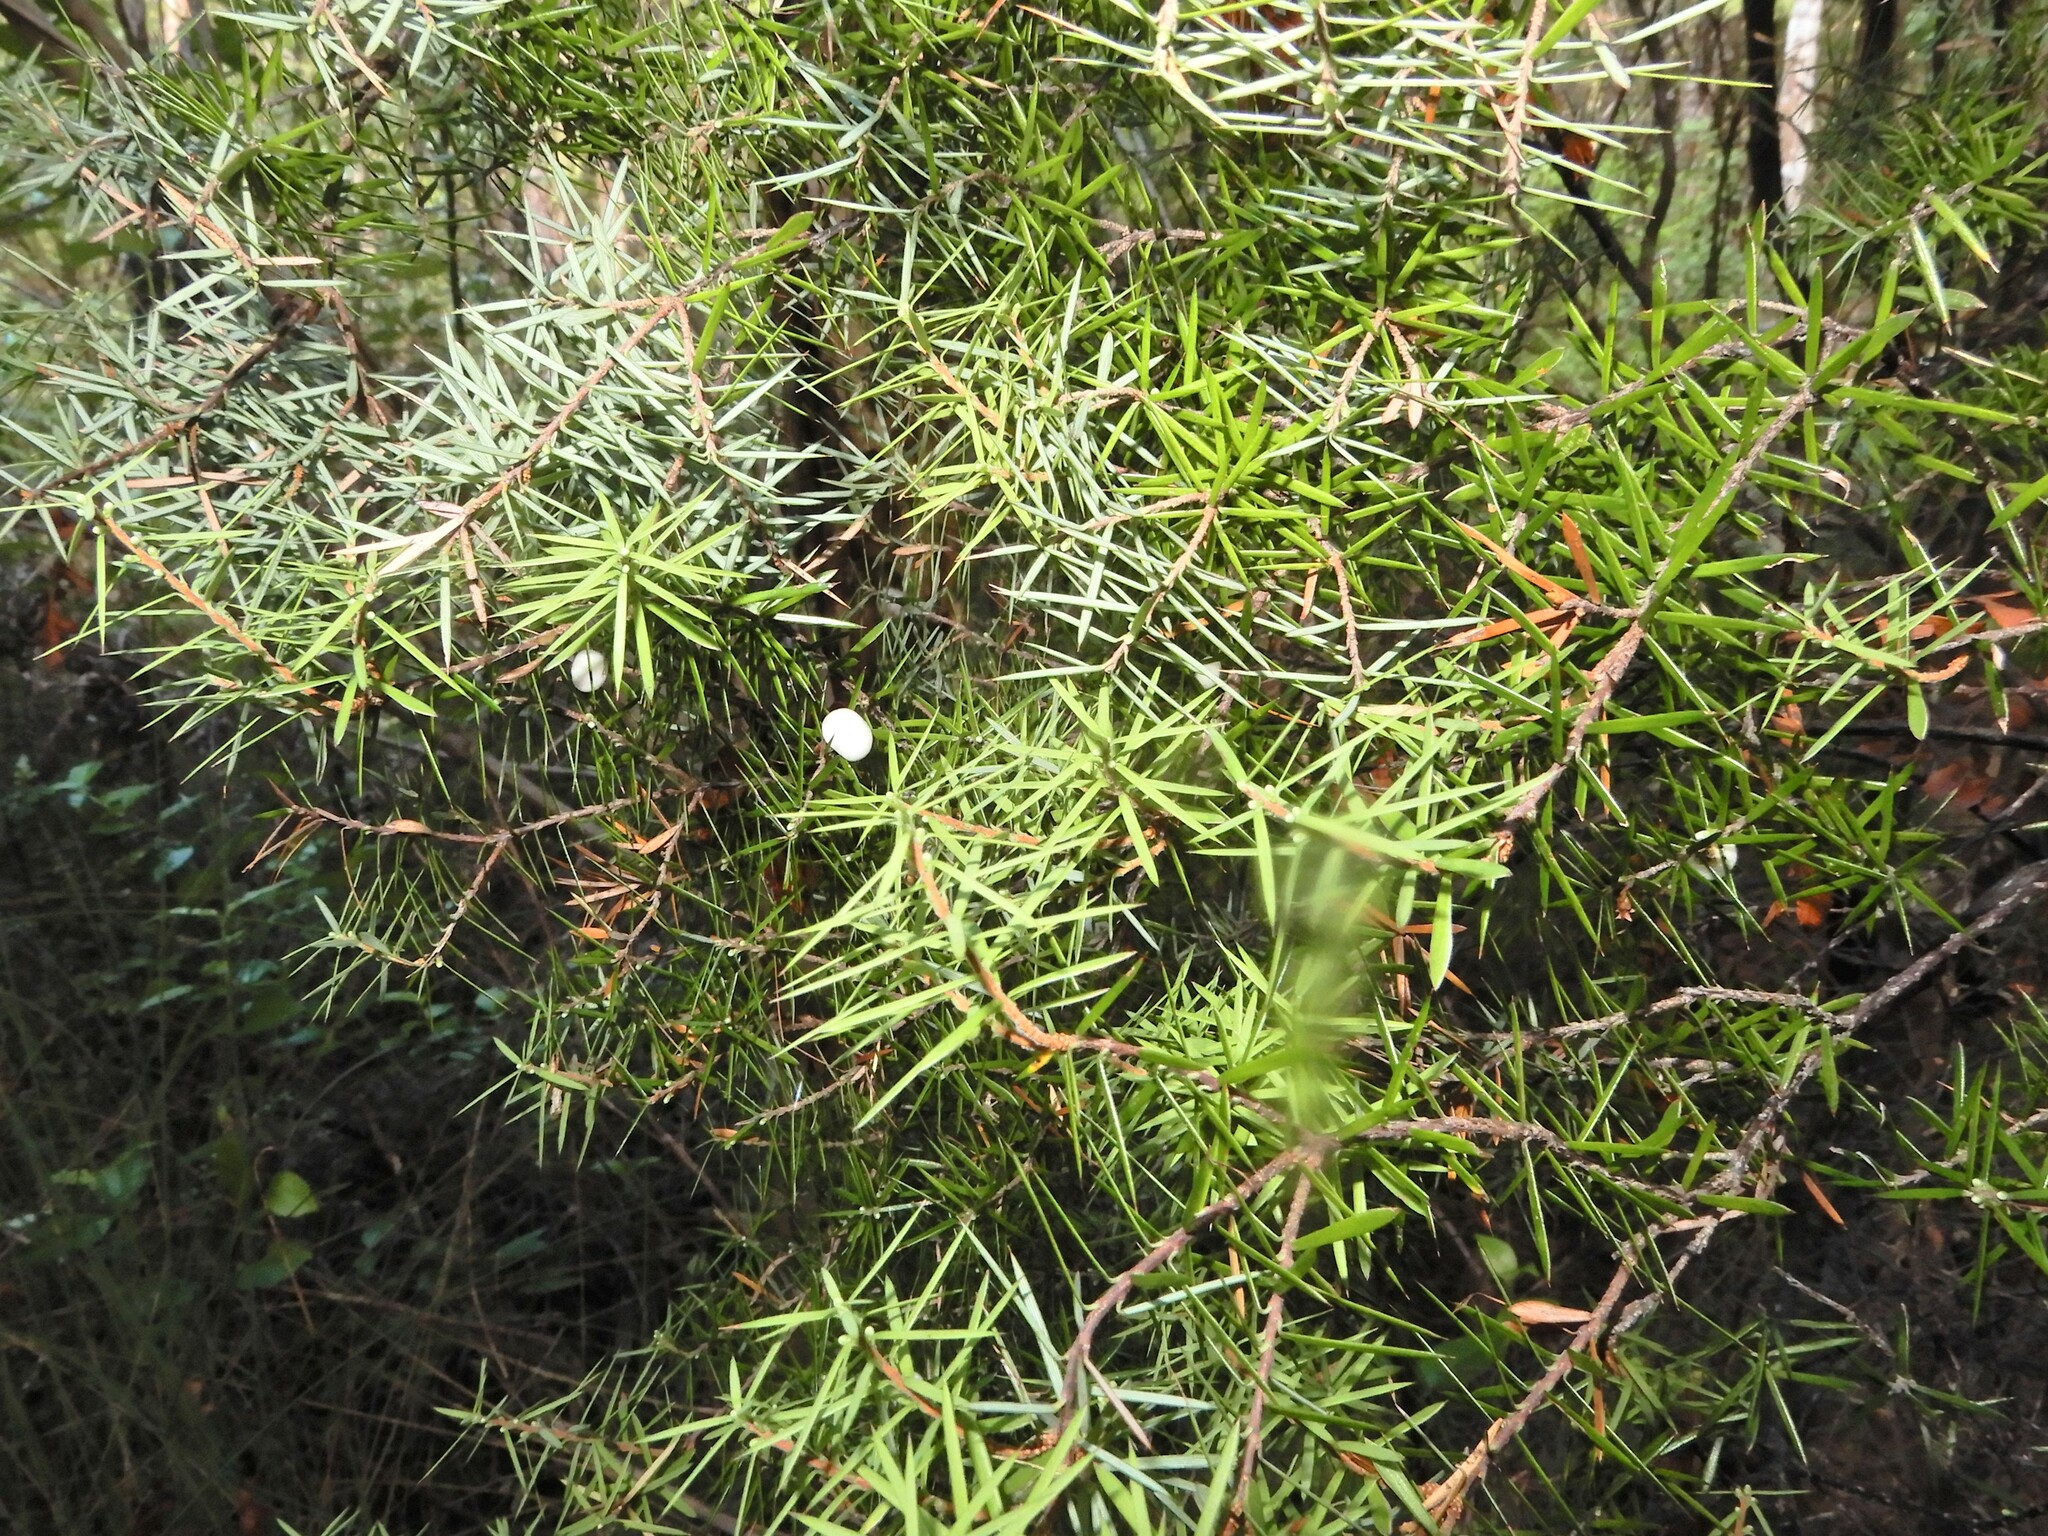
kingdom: Plantae
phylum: Tracheophyta
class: Magnoliopsida
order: Ericales
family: Ericaceae
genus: Leptecophylla
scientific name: Leptecophylla juniperina
